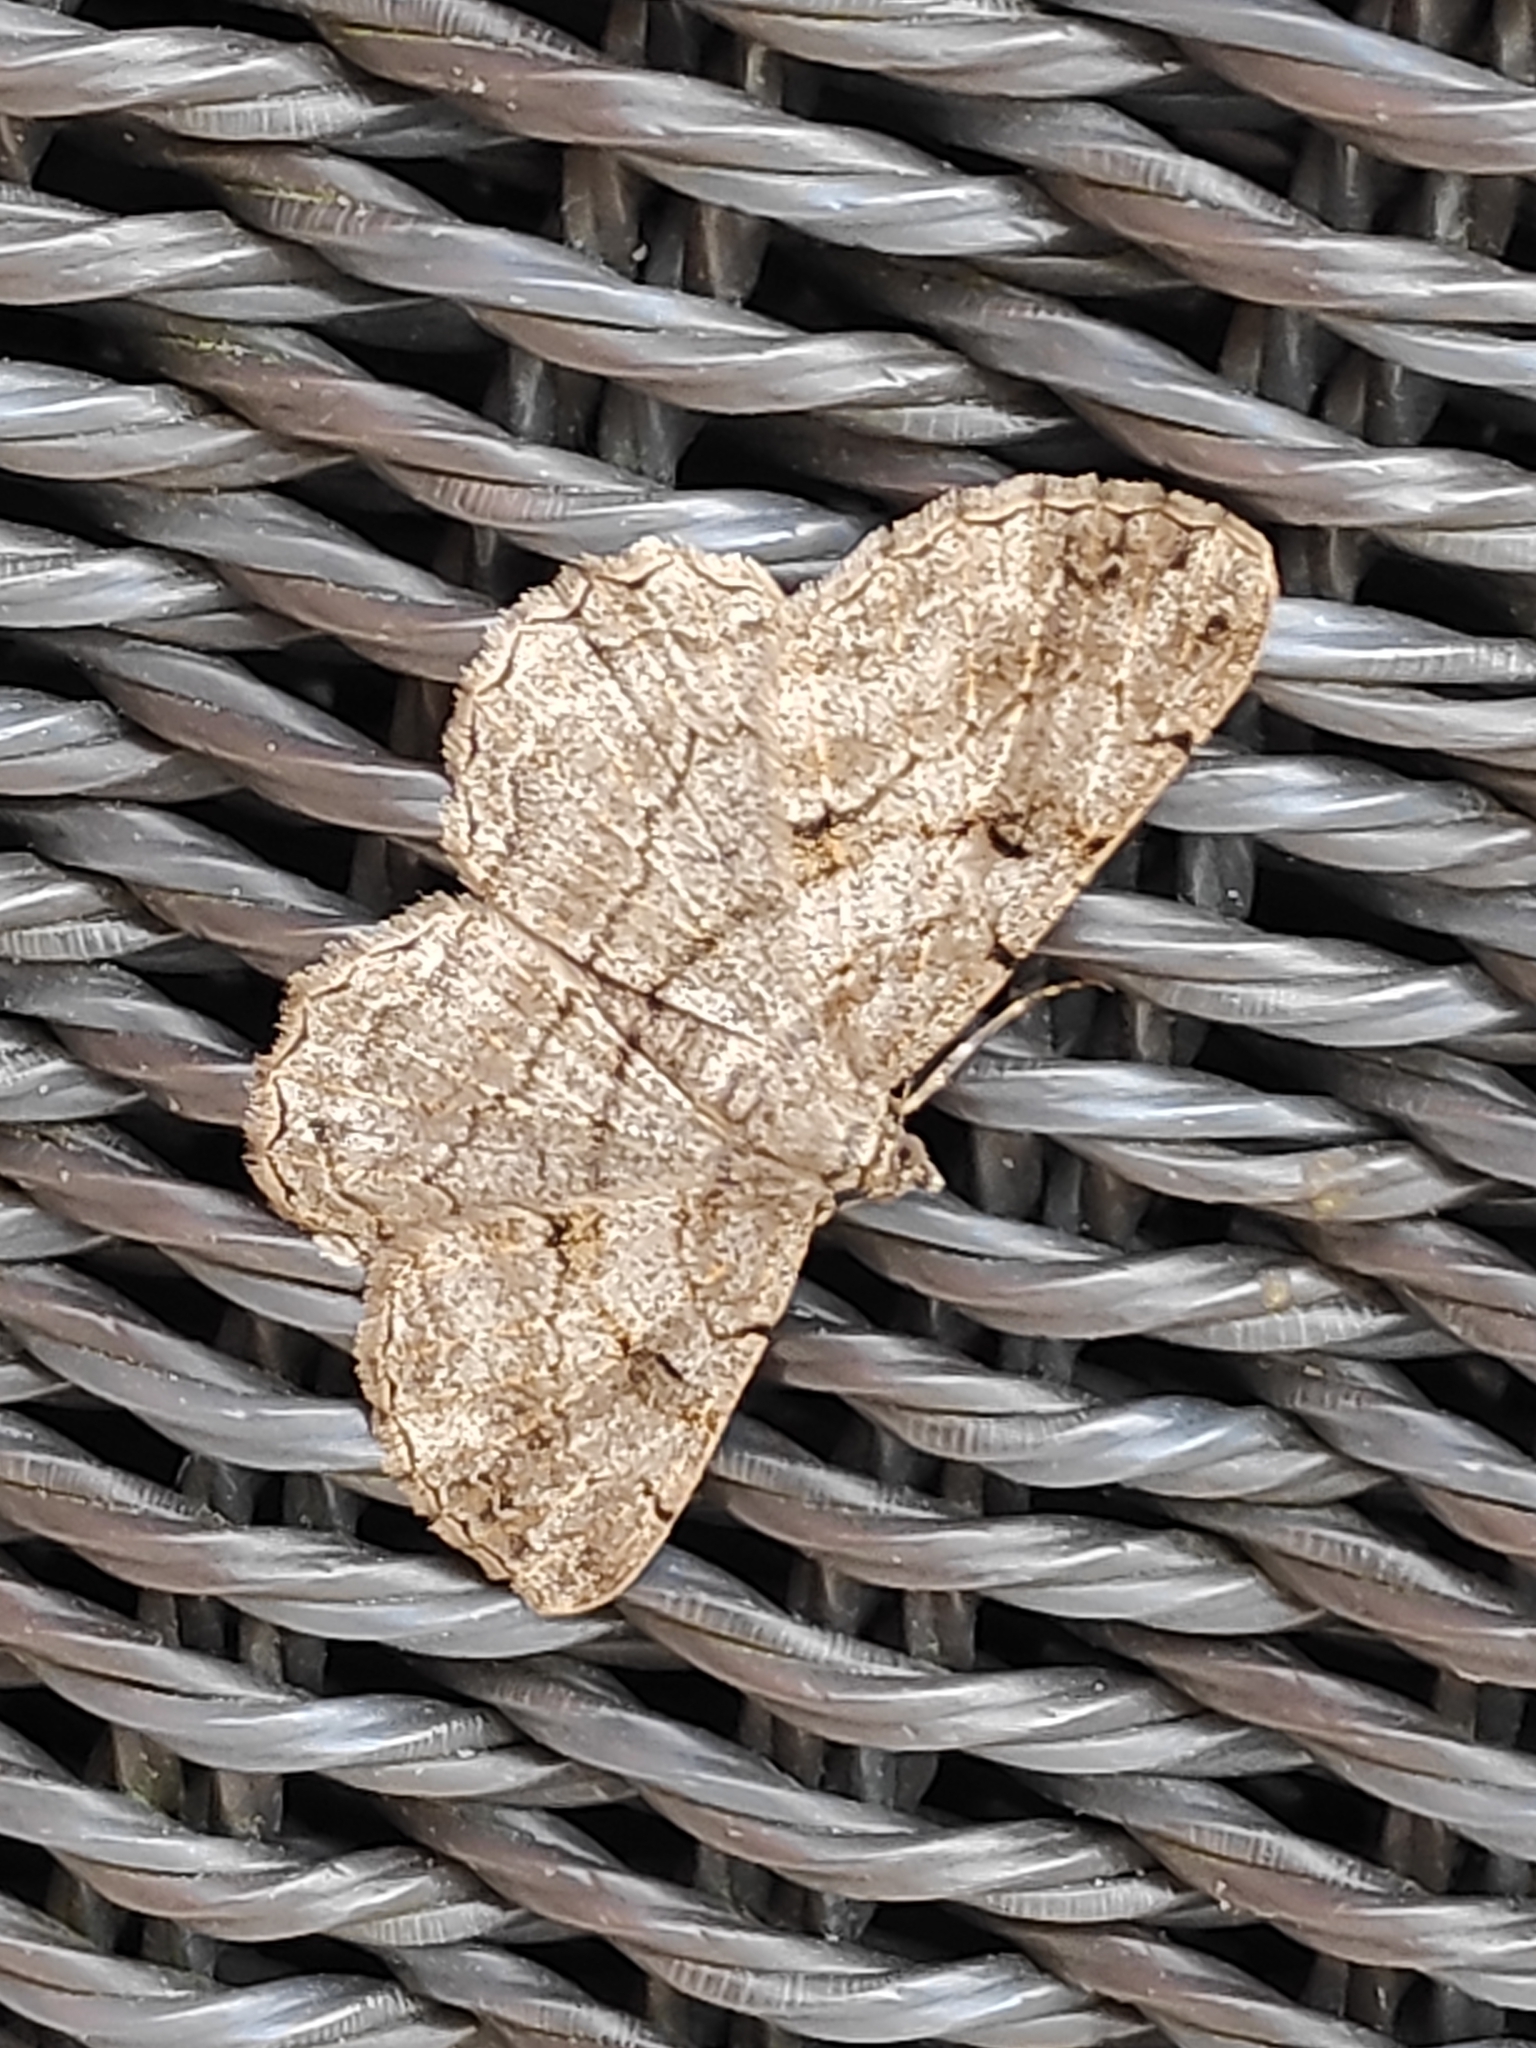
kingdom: Animalia
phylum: Arthropoda
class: Insecta
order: Lepidoptera
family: Geometridae
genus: Peribatodes
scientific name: Peribatodes rhomboidaria
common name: Willow beauty
